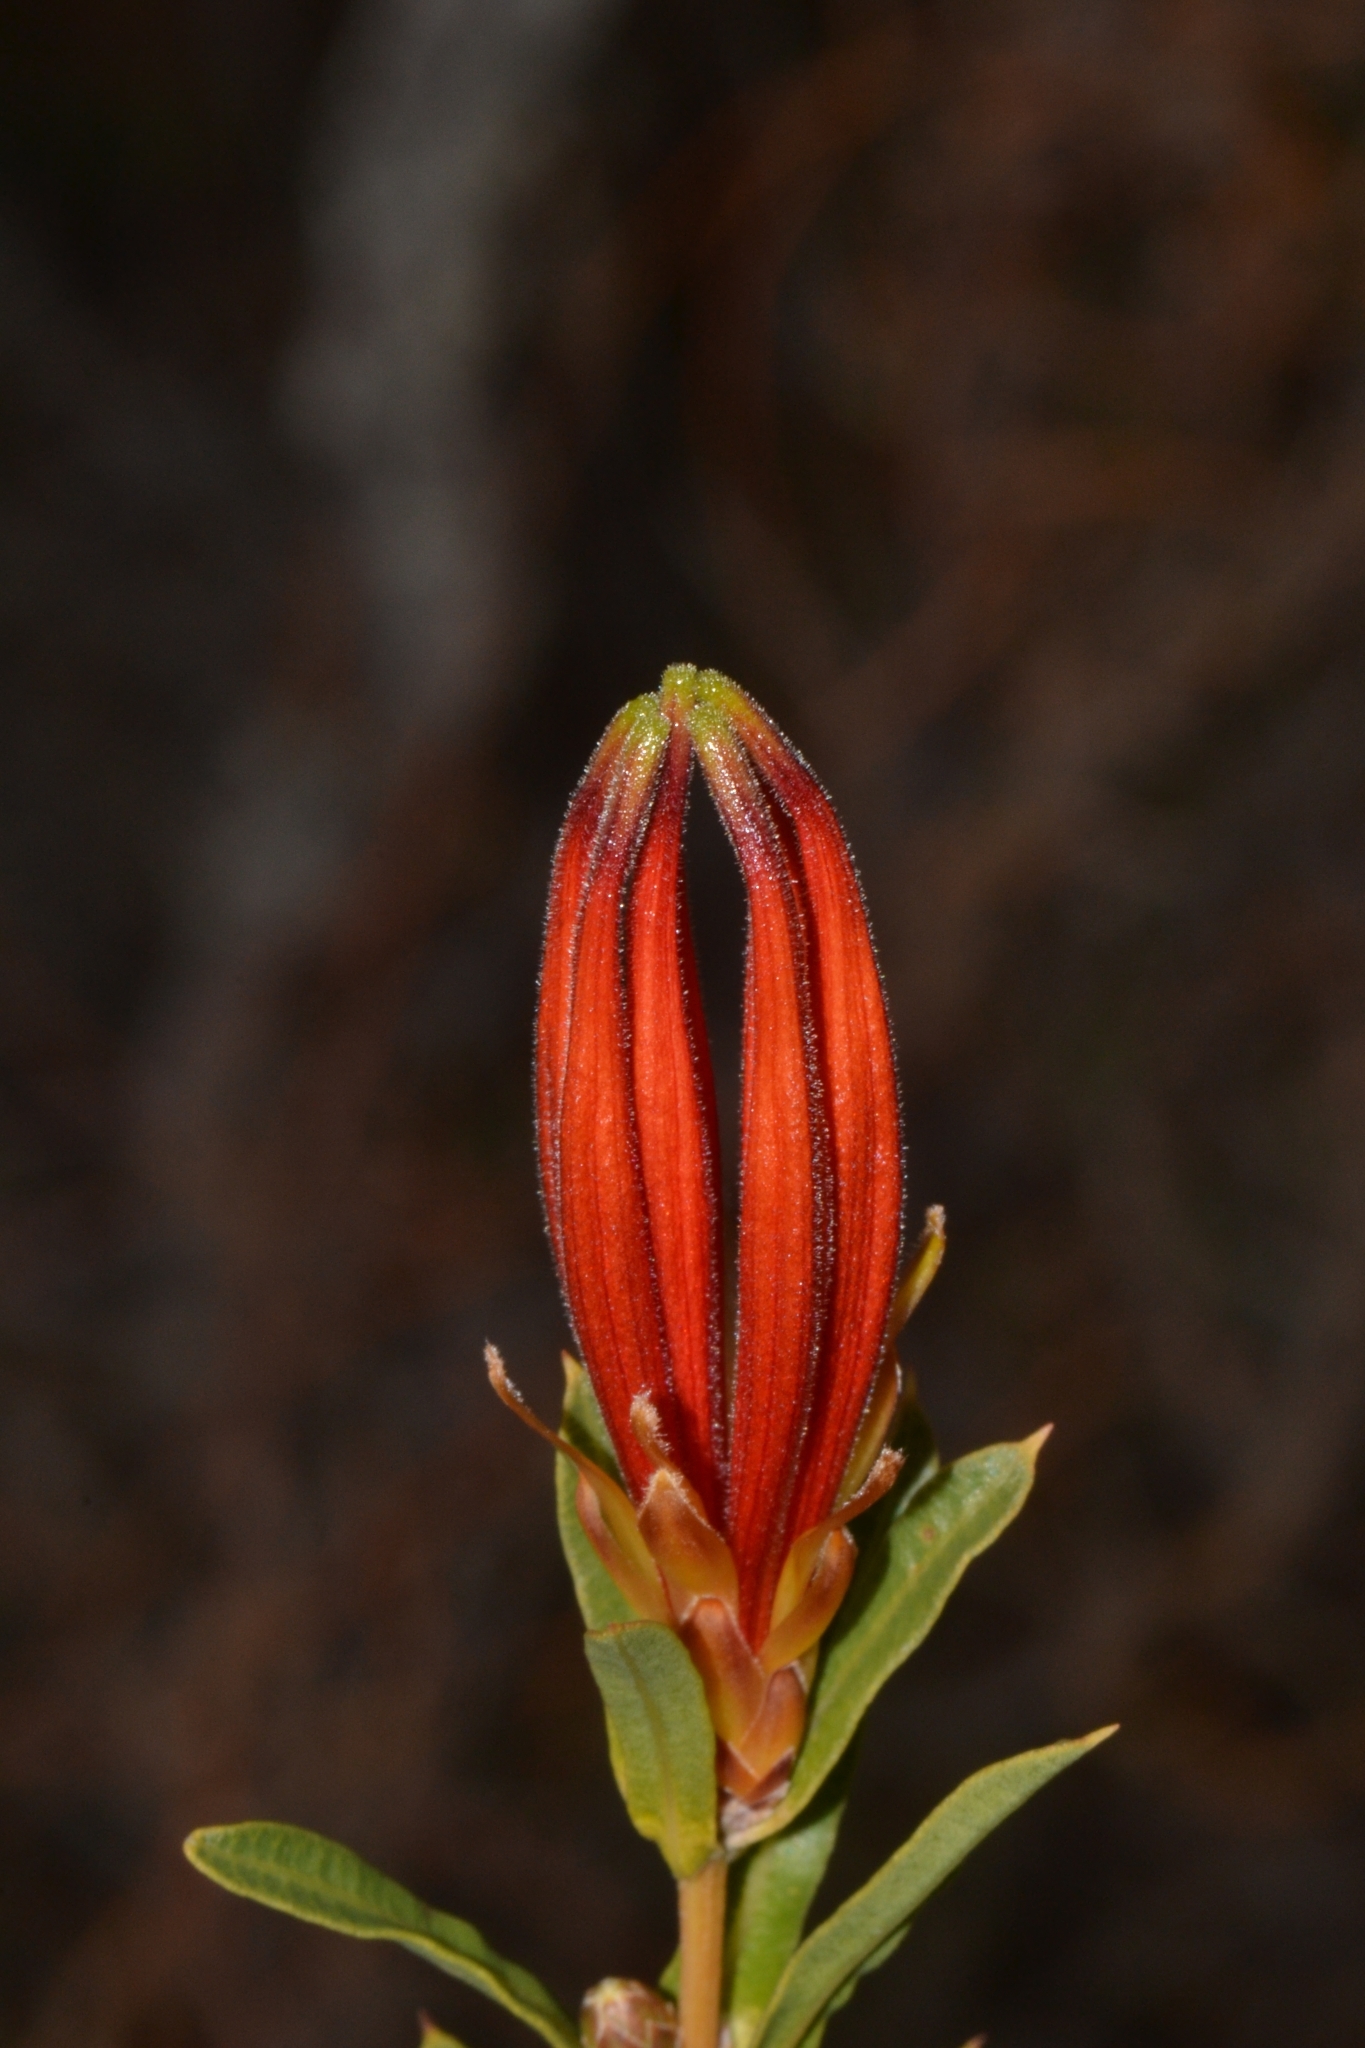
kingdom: Plantae
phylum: Tracheophyta
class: Magnoliopsida
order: Proteales
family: Proteaceae
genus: Lambertia
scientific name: Lambertia multiflora
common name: Many-flowered honeysuckle
